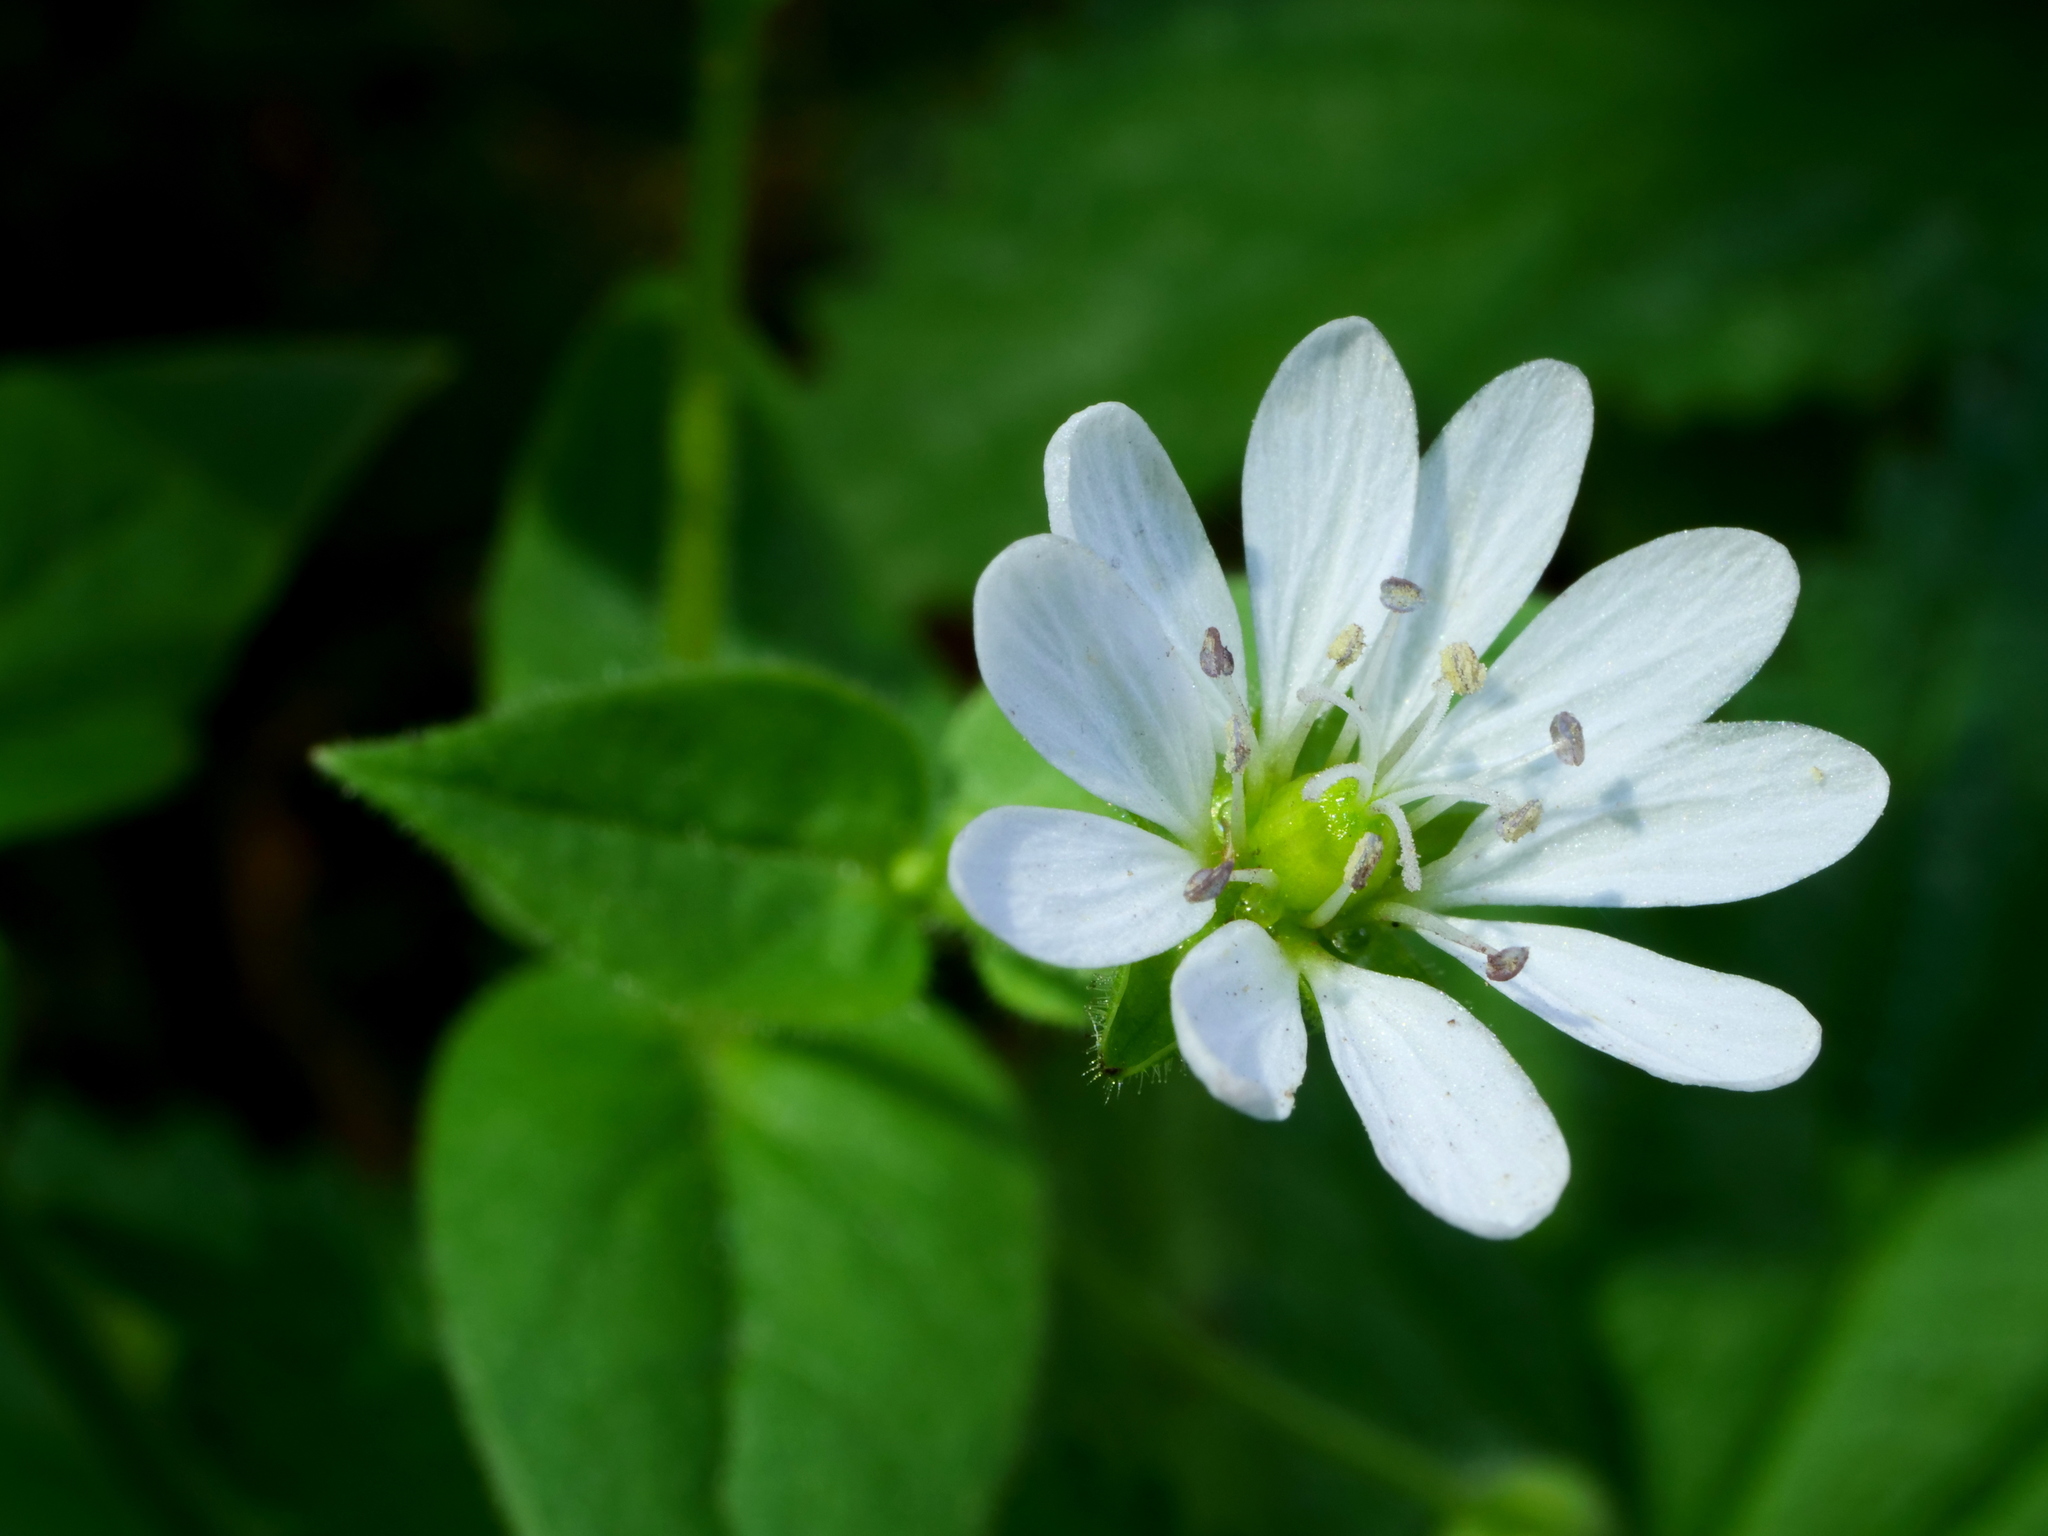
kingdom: Plantae
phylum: Tracheophyta
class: Magnoliopsida
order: Caryophyllales
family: Caryophyllaceae
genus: Stellaria
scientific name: Stellaria aquatica
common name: Water chickweed
